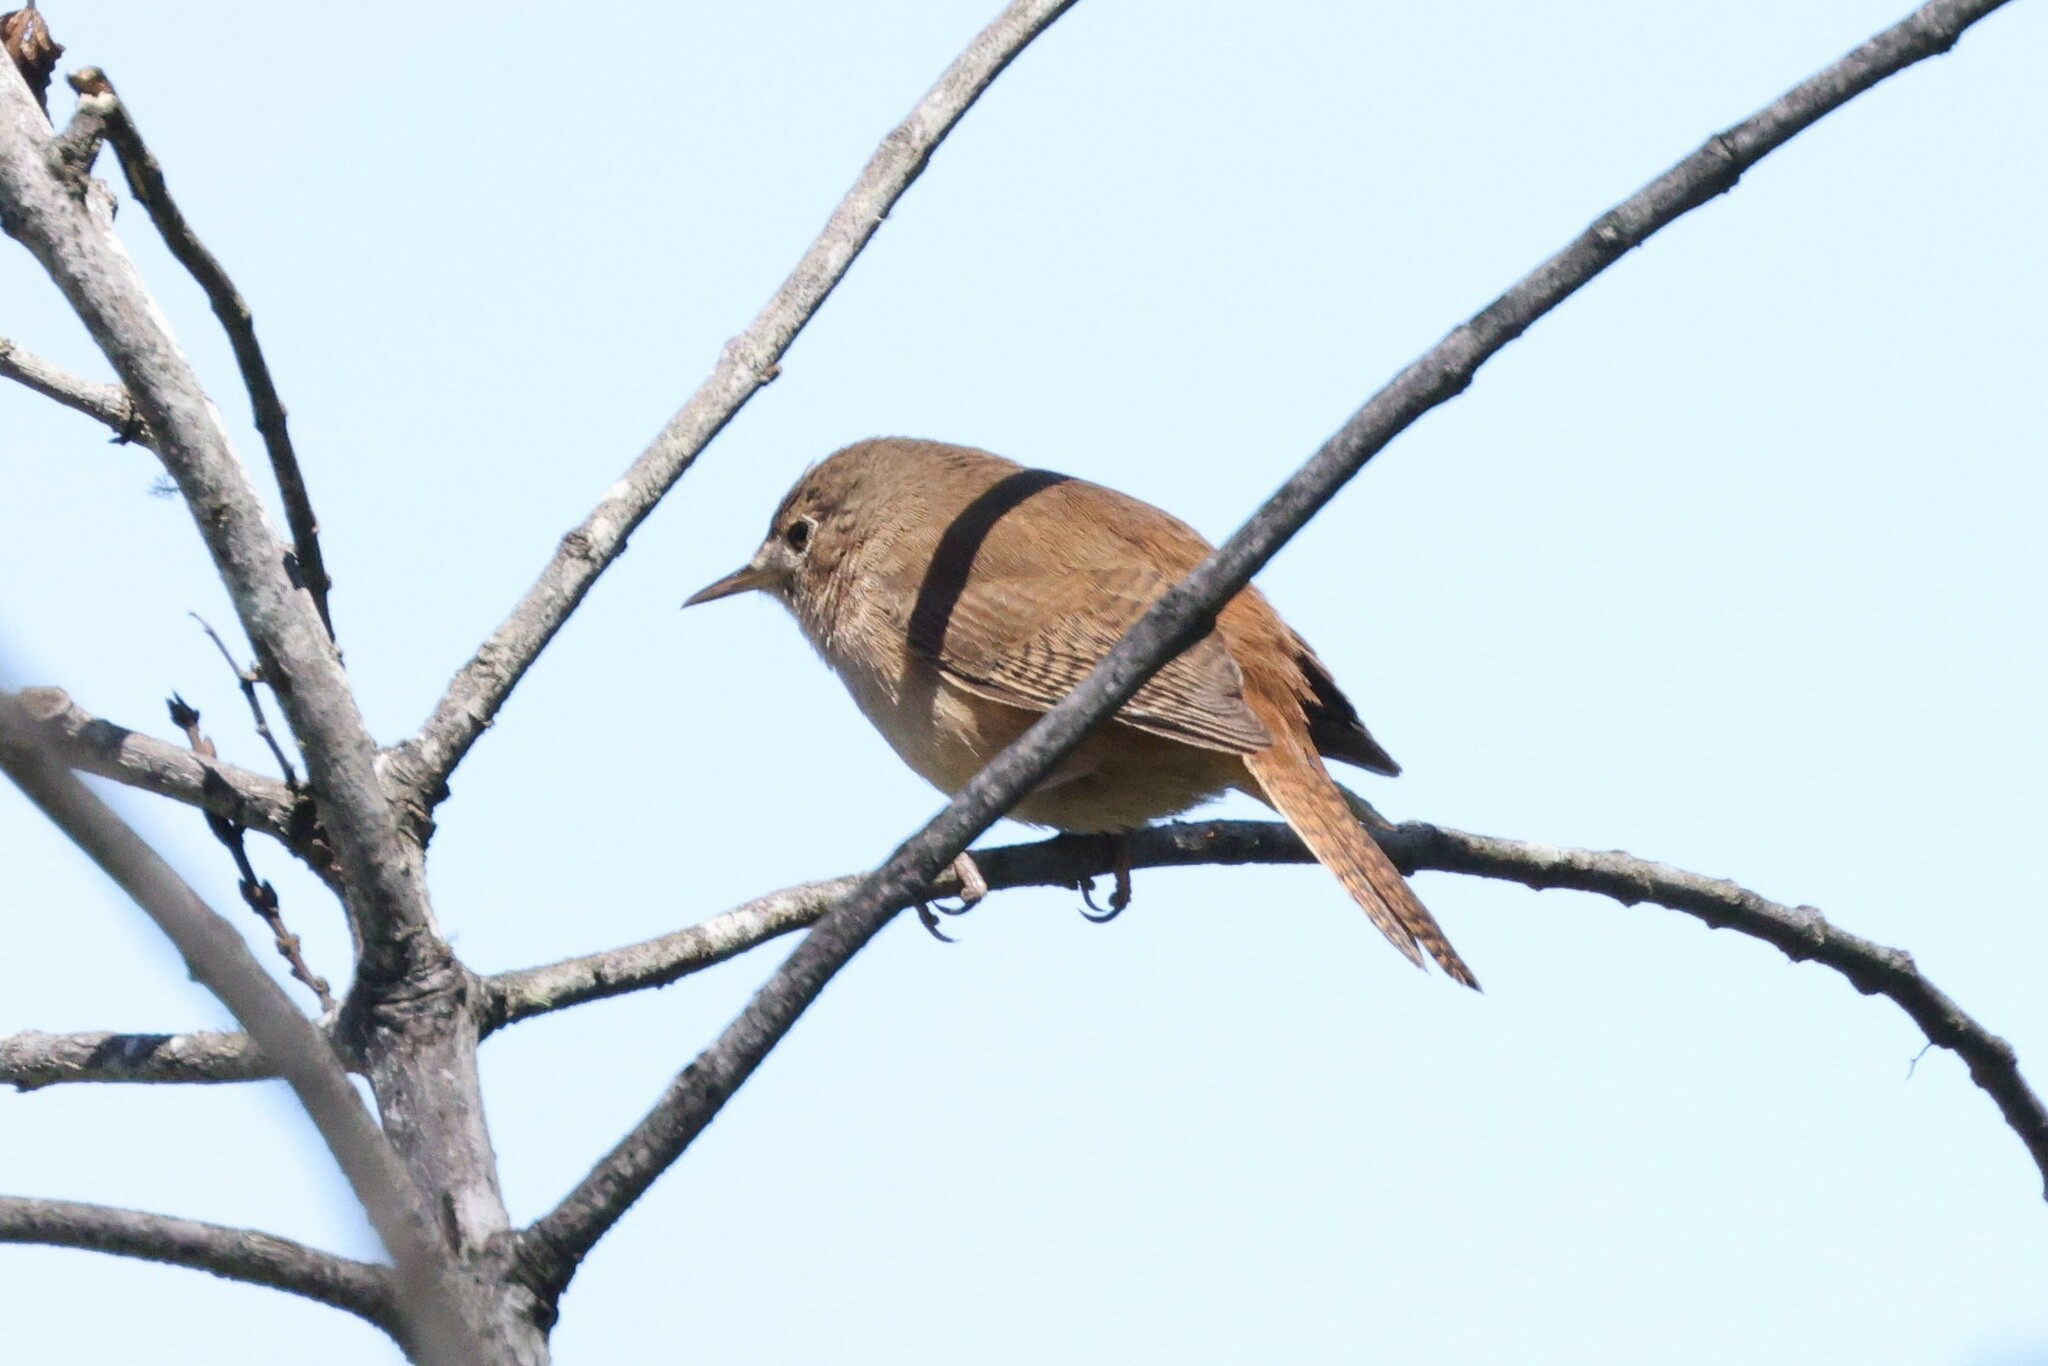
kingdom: Animalia
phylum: Chordata
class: Aves
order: Passeriformes
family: Troglodytidae
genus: Troglodytes
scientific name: Troglodytes aedon
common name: House wren
